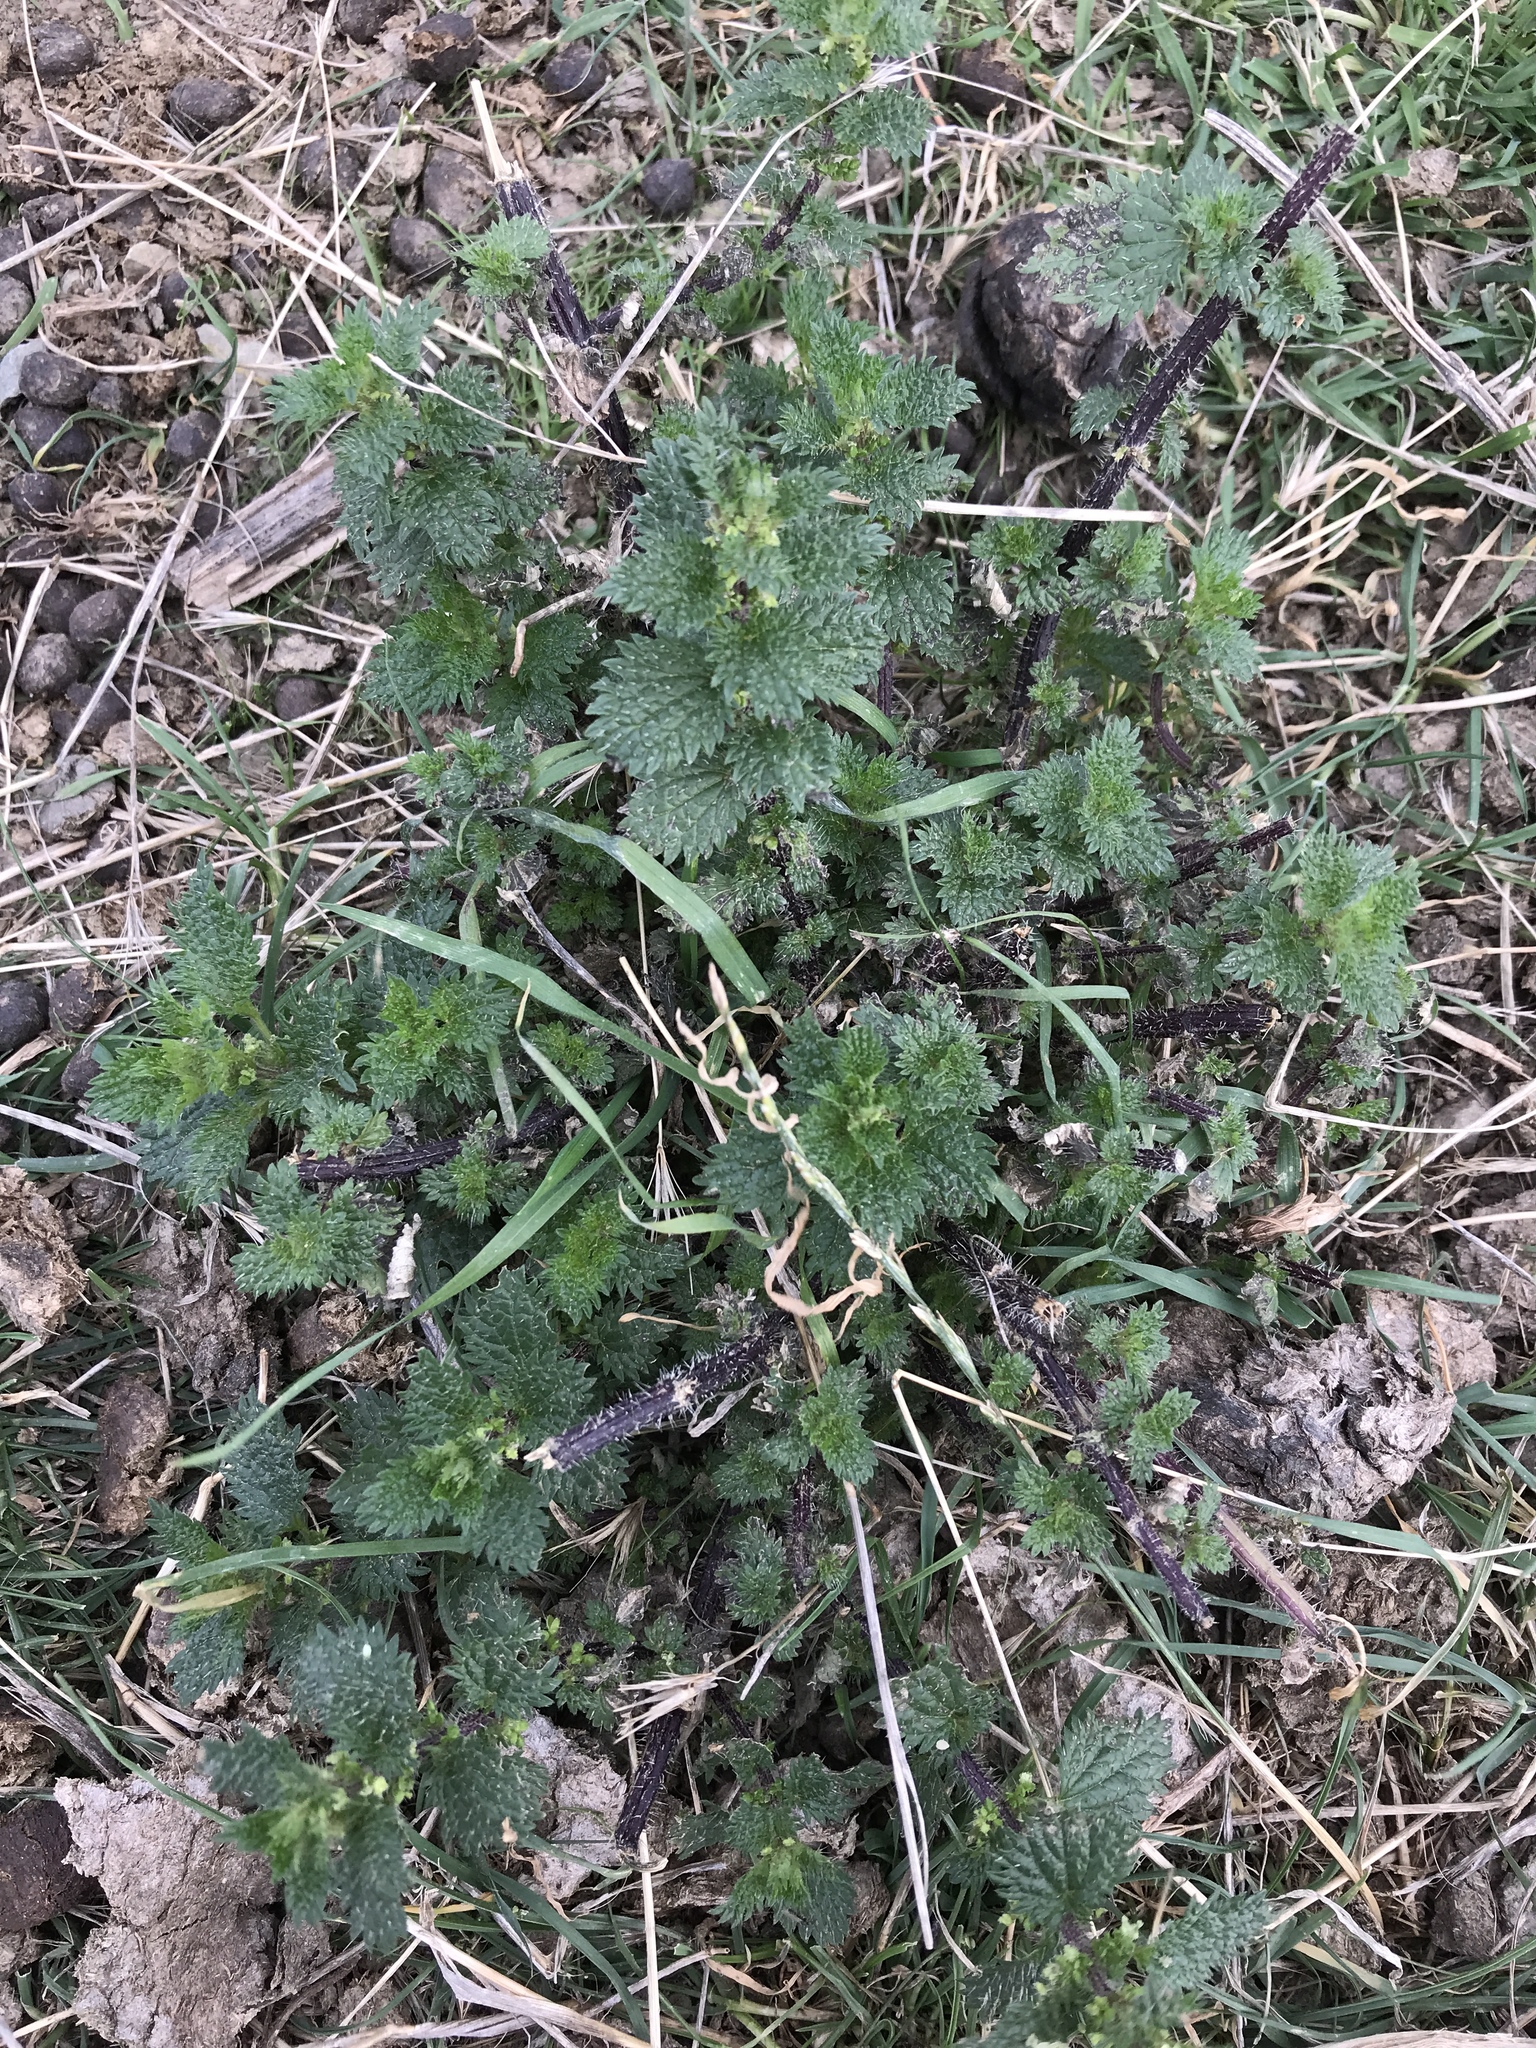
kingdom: Plantae
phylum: Tracheophyta
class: Magnoliopsida
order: Rosales
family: Urticaceae
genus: Urtica
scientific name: Urtica urens
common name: Dwarf nettle
